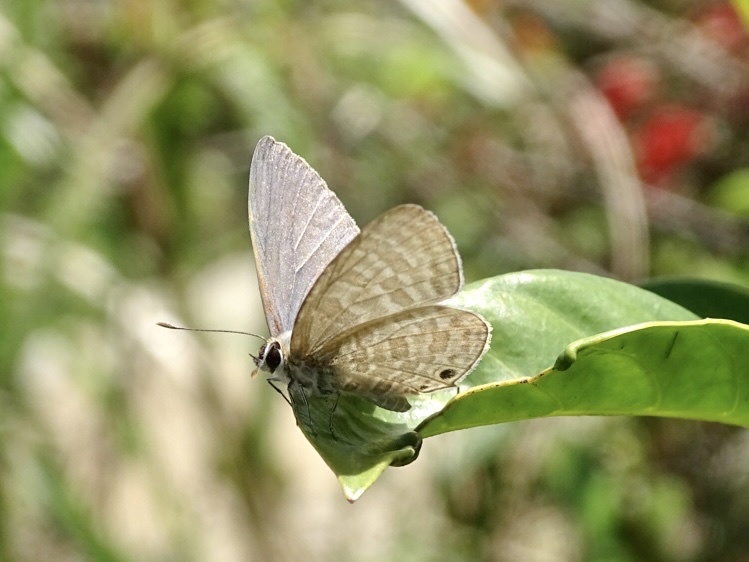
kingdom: Animalia
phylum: Arthropoda
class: Insecta
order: Lepidoptera
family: Lycaenidae
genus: Nacaduba
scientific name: Nacaduba kurava
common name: Transparent 6-line blue
